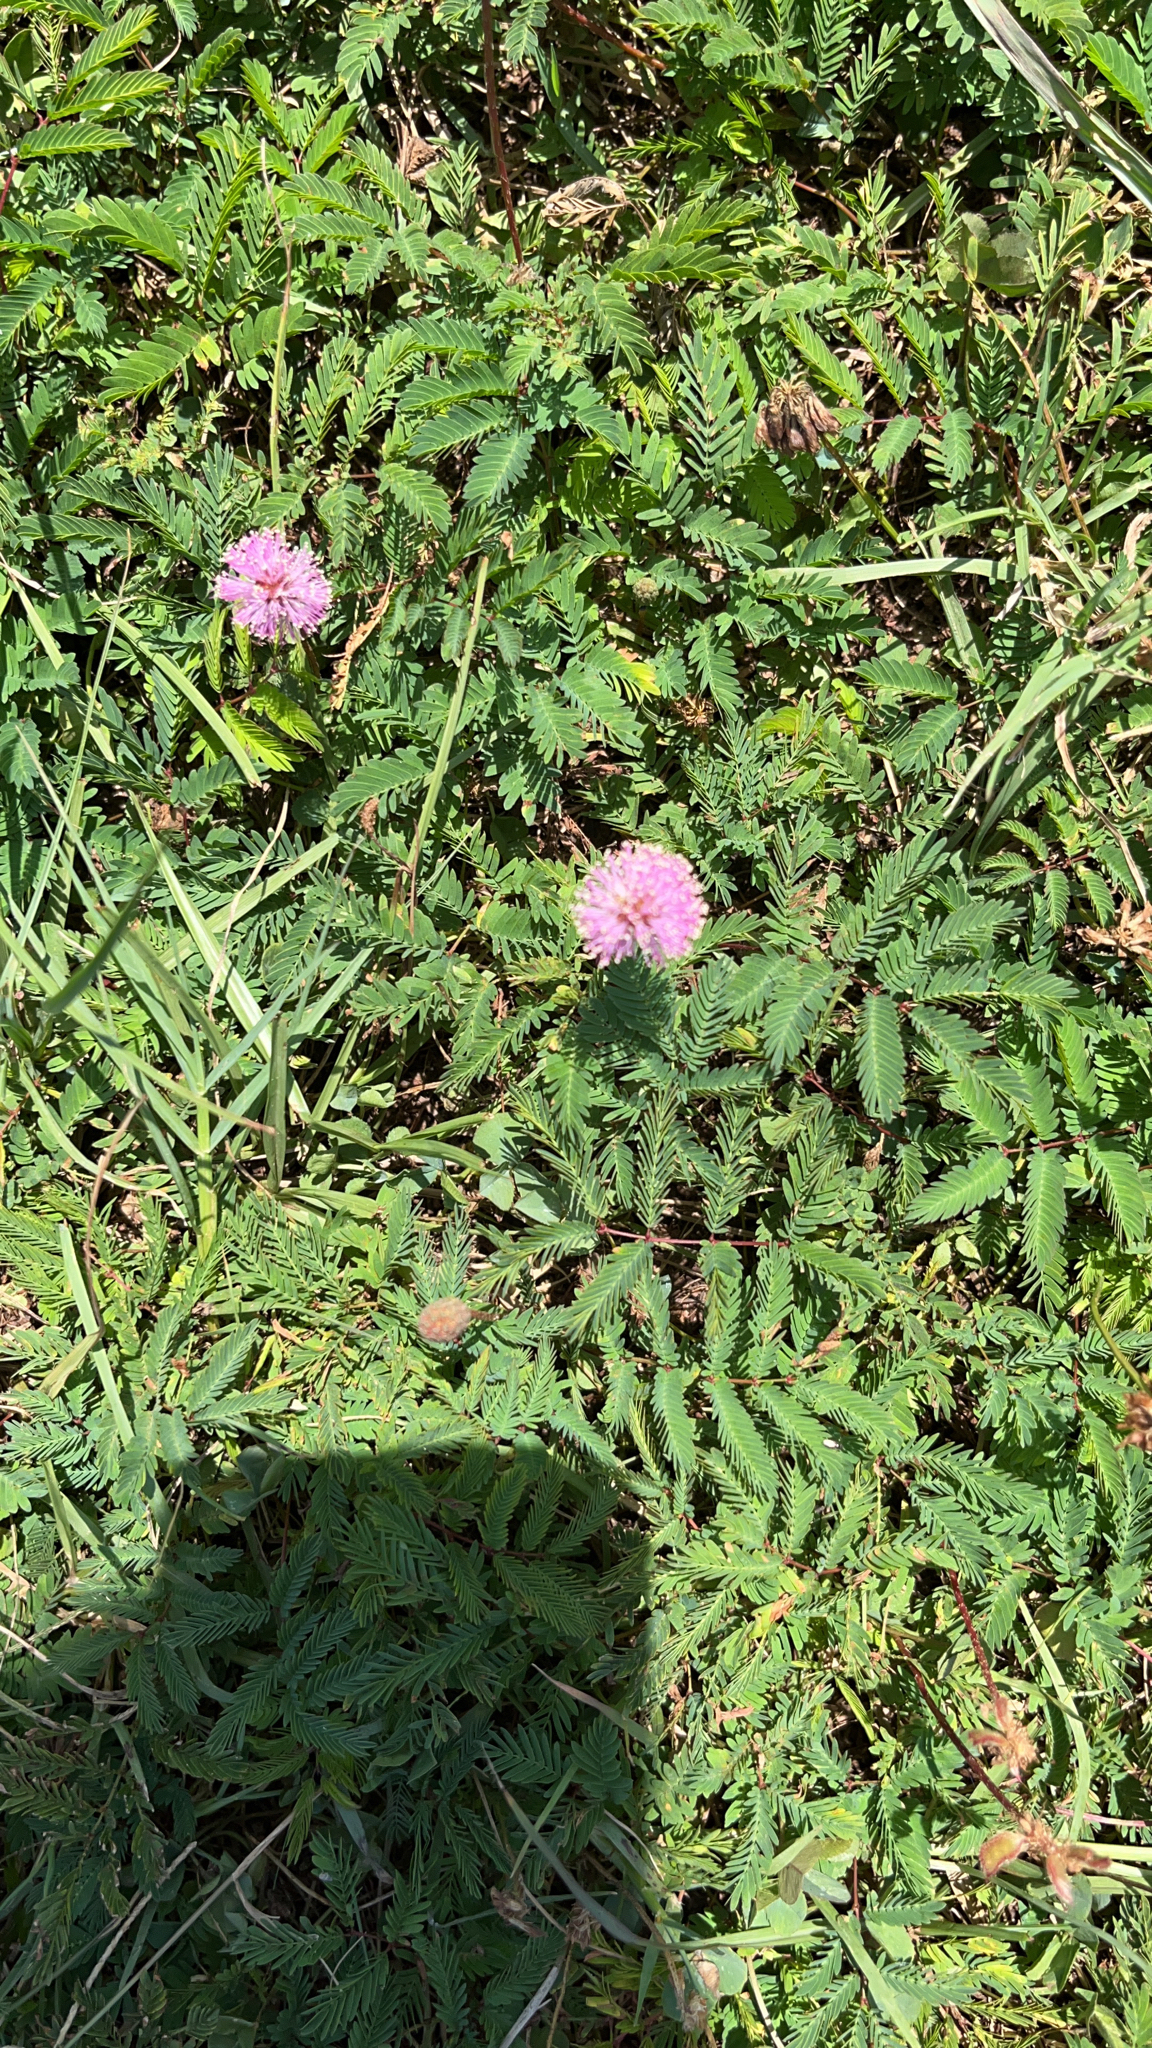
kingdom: Plantae
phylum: Tracheophyta
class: Magnoliopsida
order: Fabales
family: Fabaceae
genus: Mimosa
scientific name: Mimosa strigillosa
